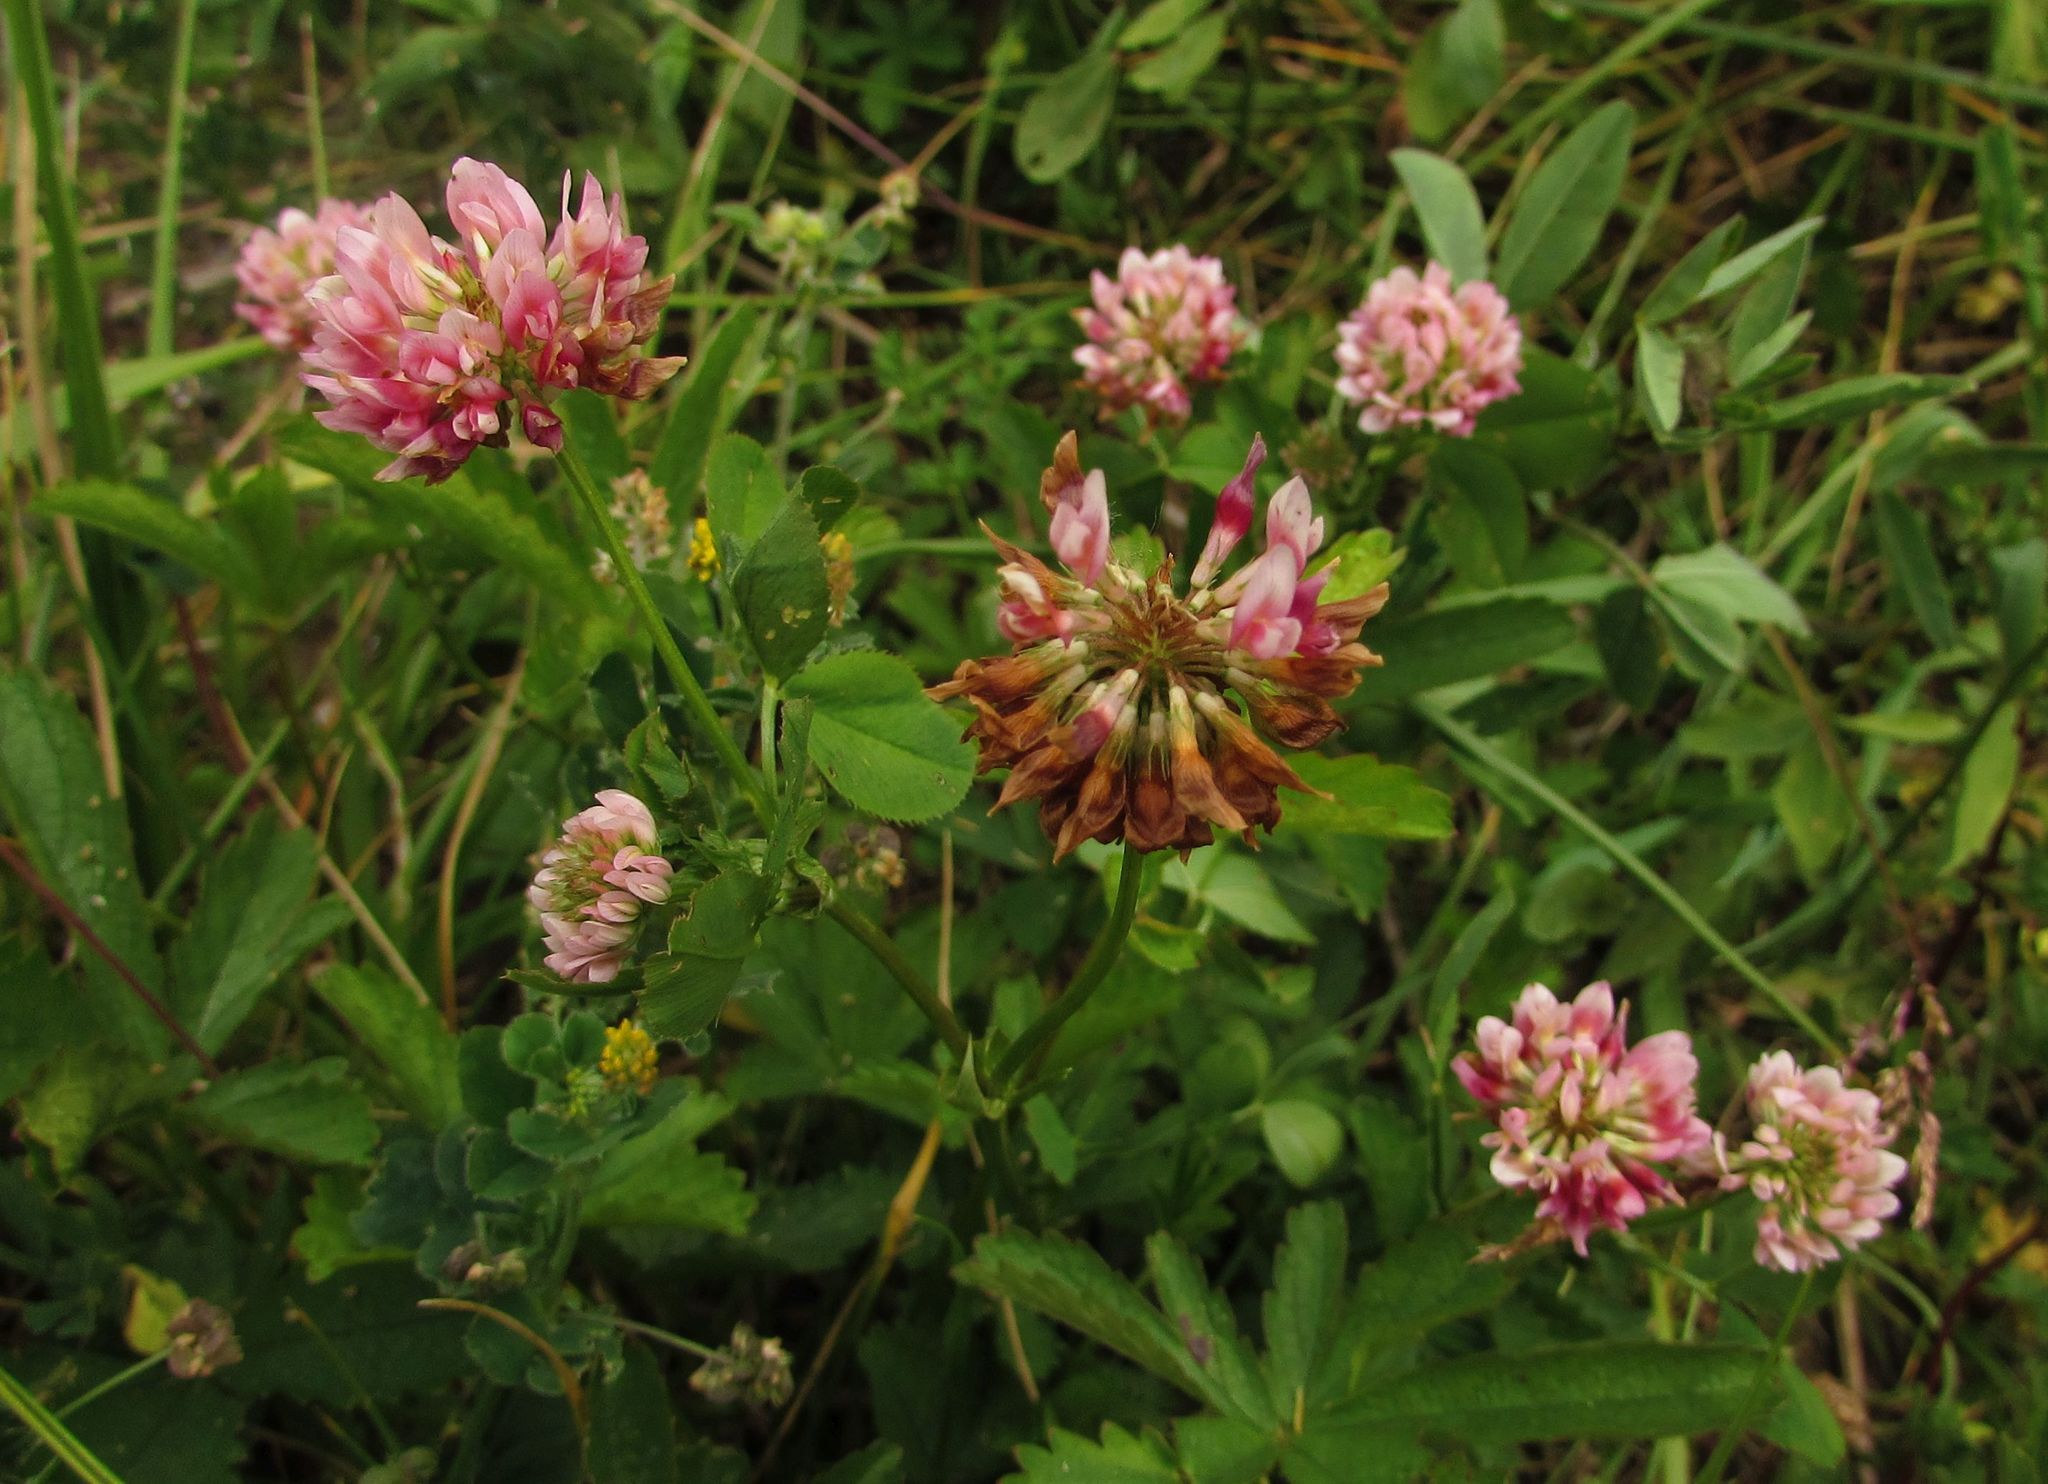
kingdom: Plantae
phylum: Tracheophyta
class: Magnoliopsida
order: Fabales
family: Fabaceae
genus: Trifolium
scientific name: Trifolium hybridum
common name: Alsike clover
